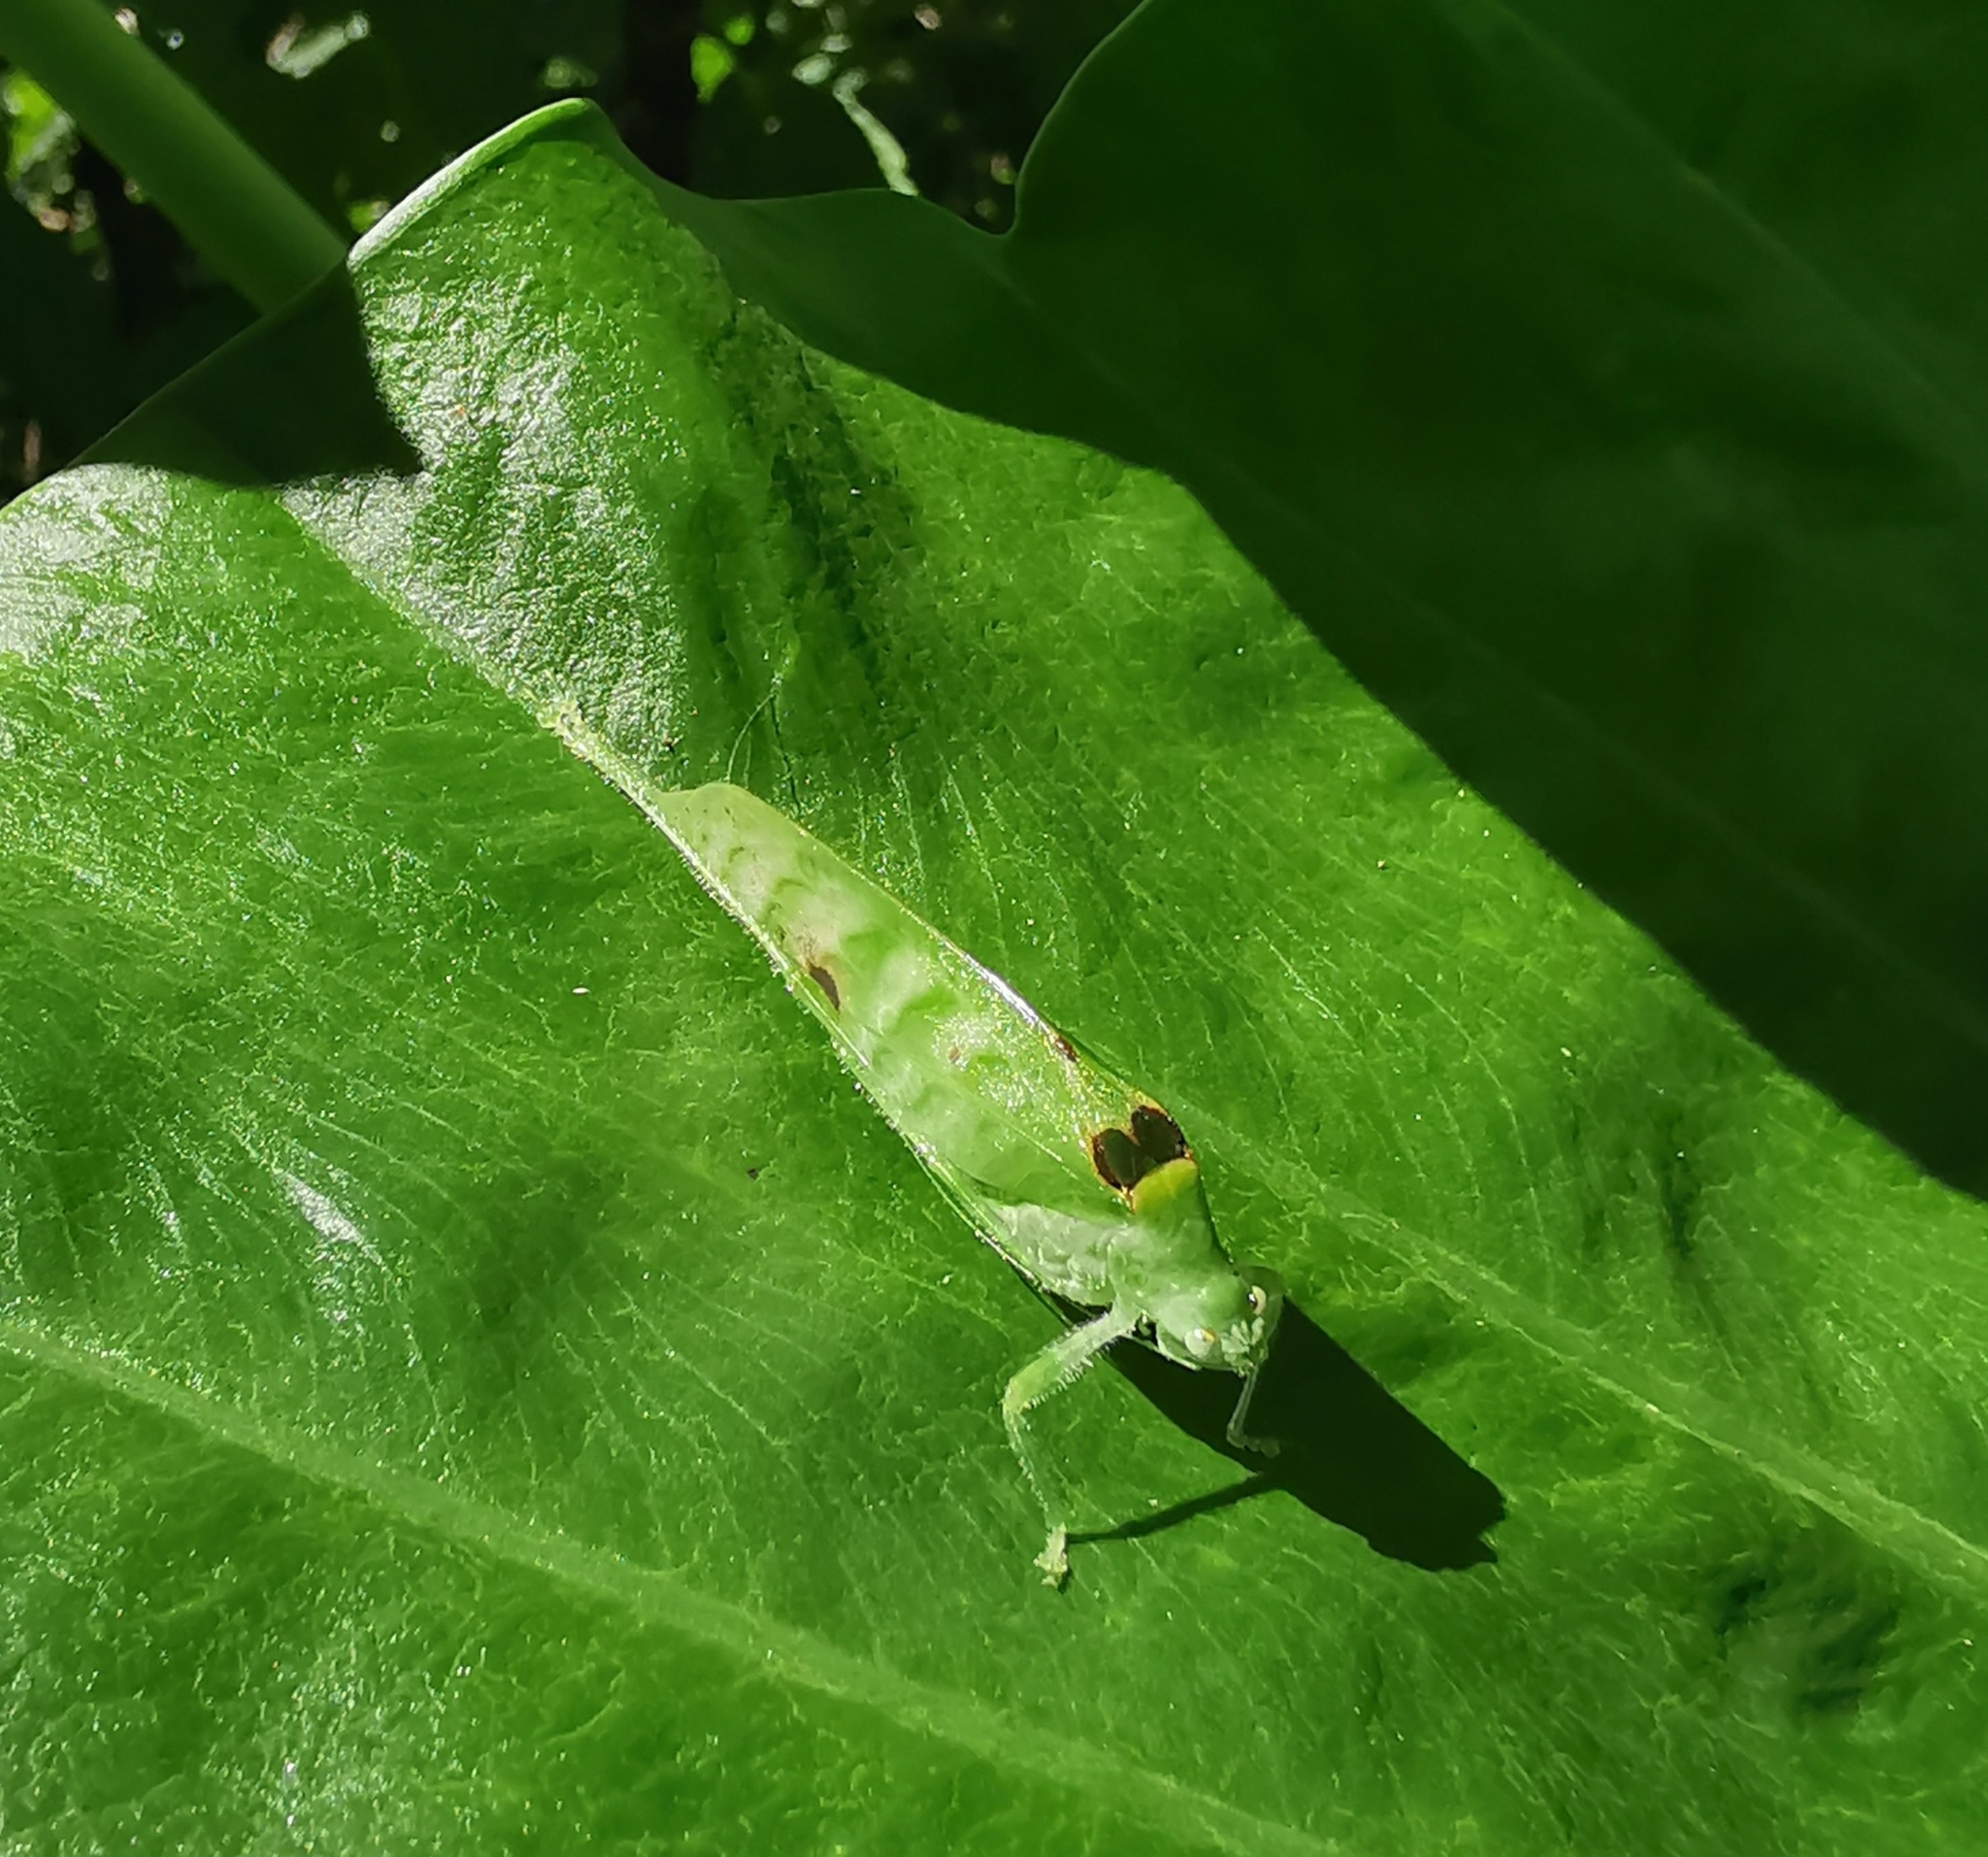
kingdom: Animalia
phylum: Arthropoda
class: Insecta
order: Orthoptera
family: Tettigoniidae
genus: Arnobia
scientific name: Arnobia pilipes
